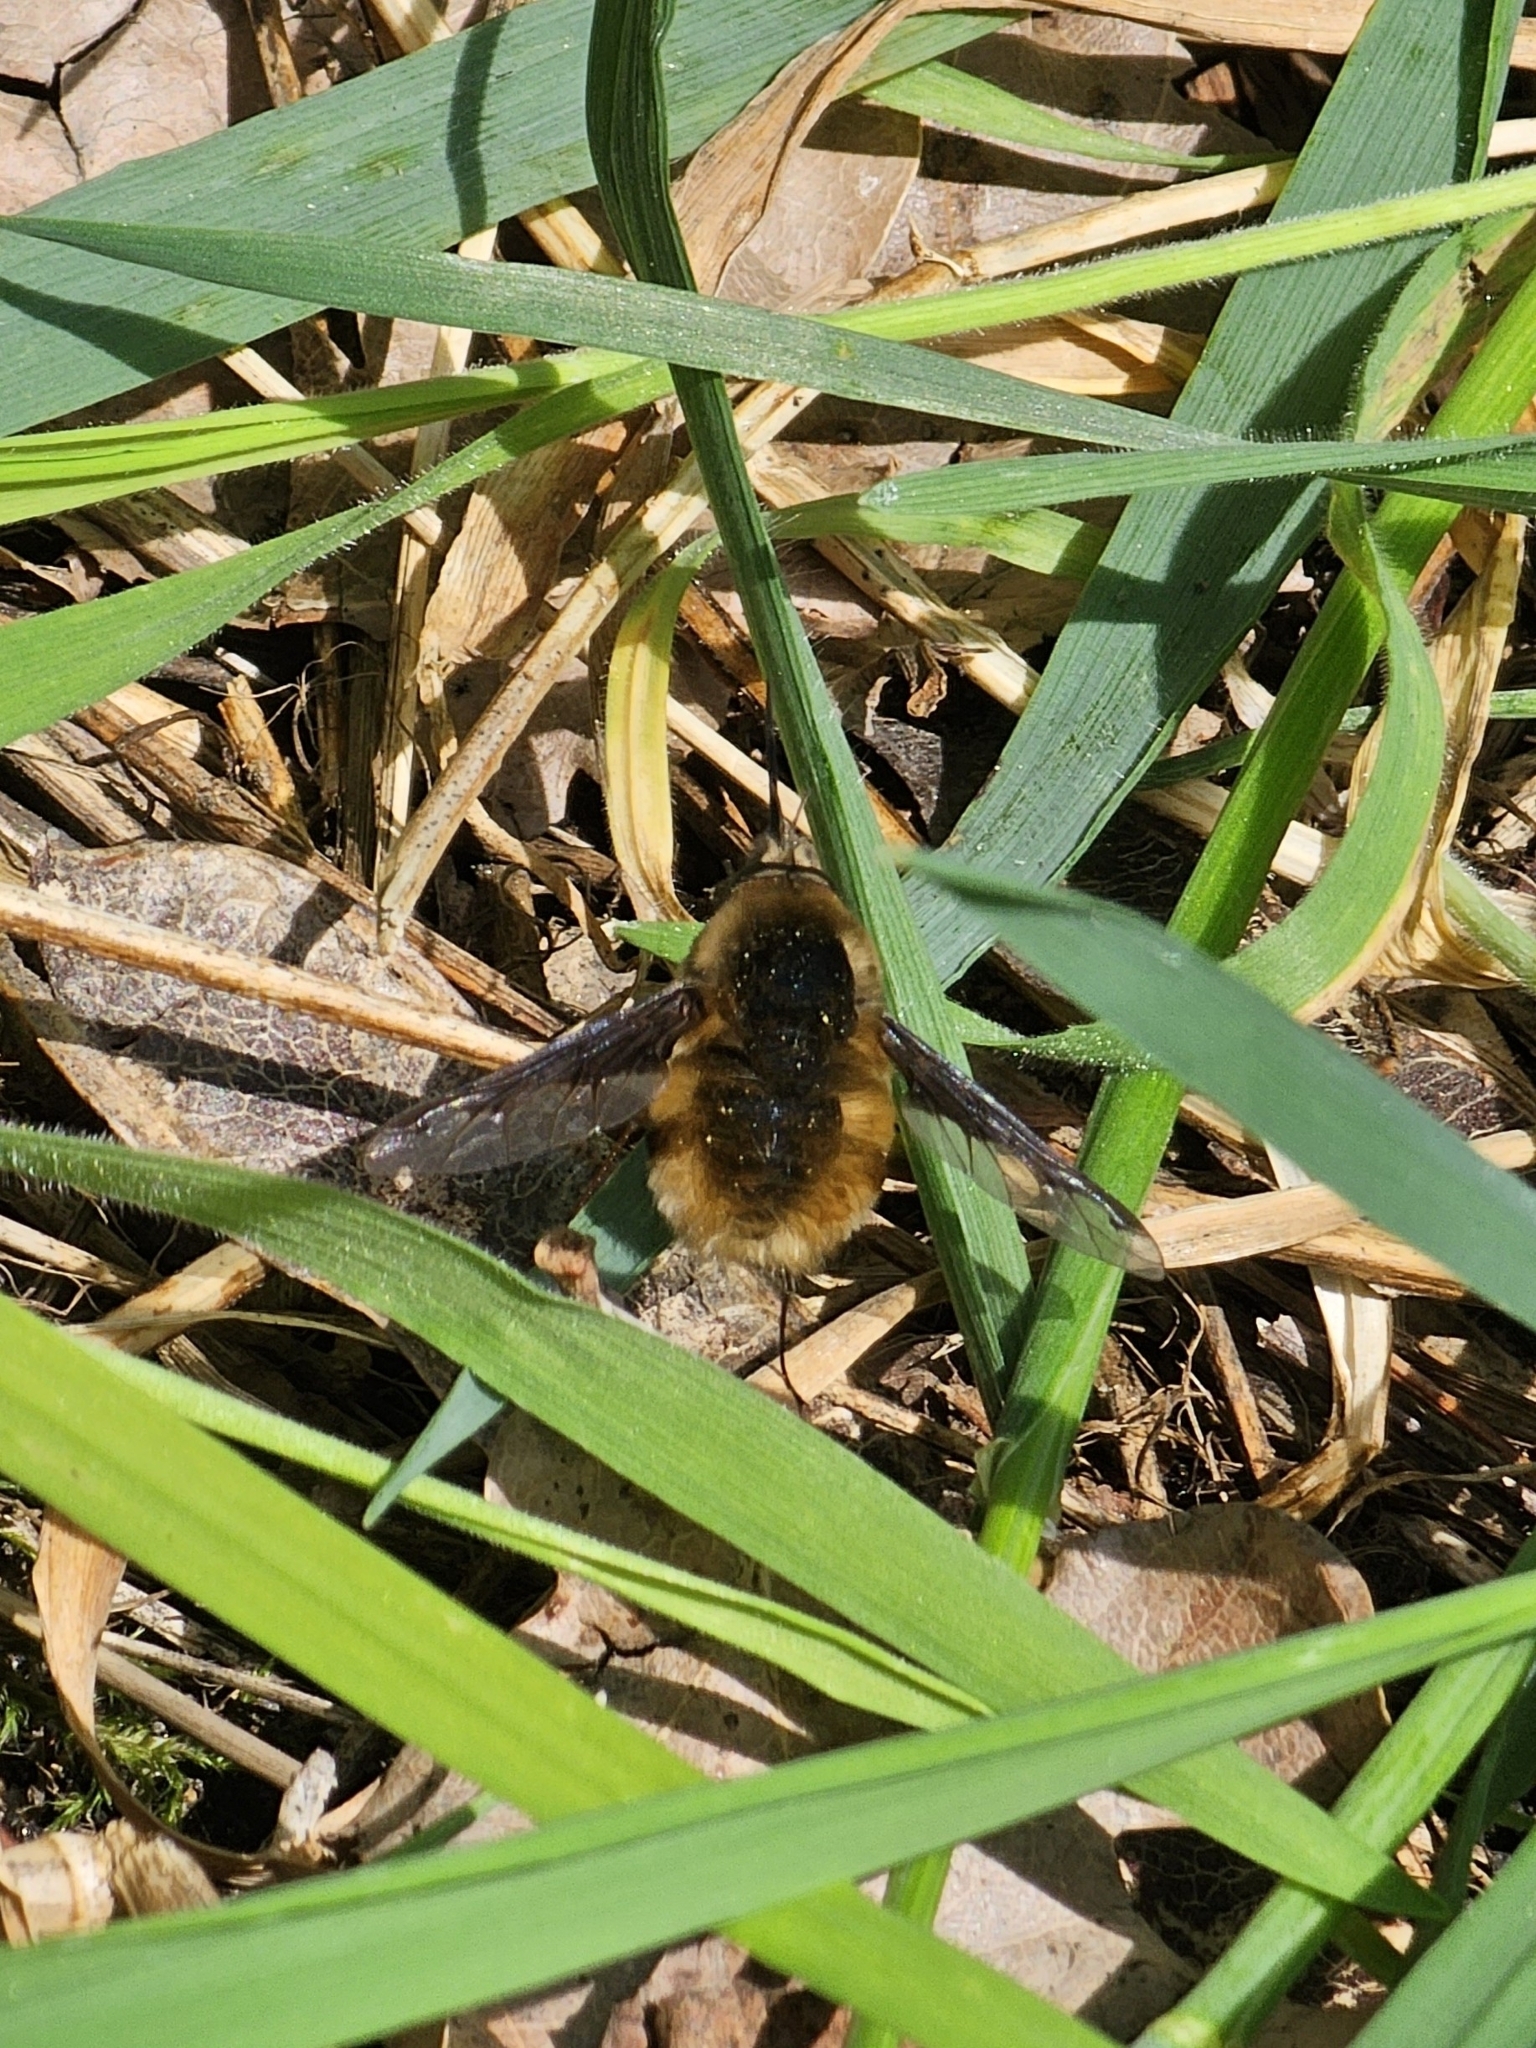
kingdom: Animalia
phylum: Arthropoda
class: Insecta
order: Diptera
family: Bombyliidae
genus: Bombylius
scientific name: Bombylius major
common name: Bee fly
